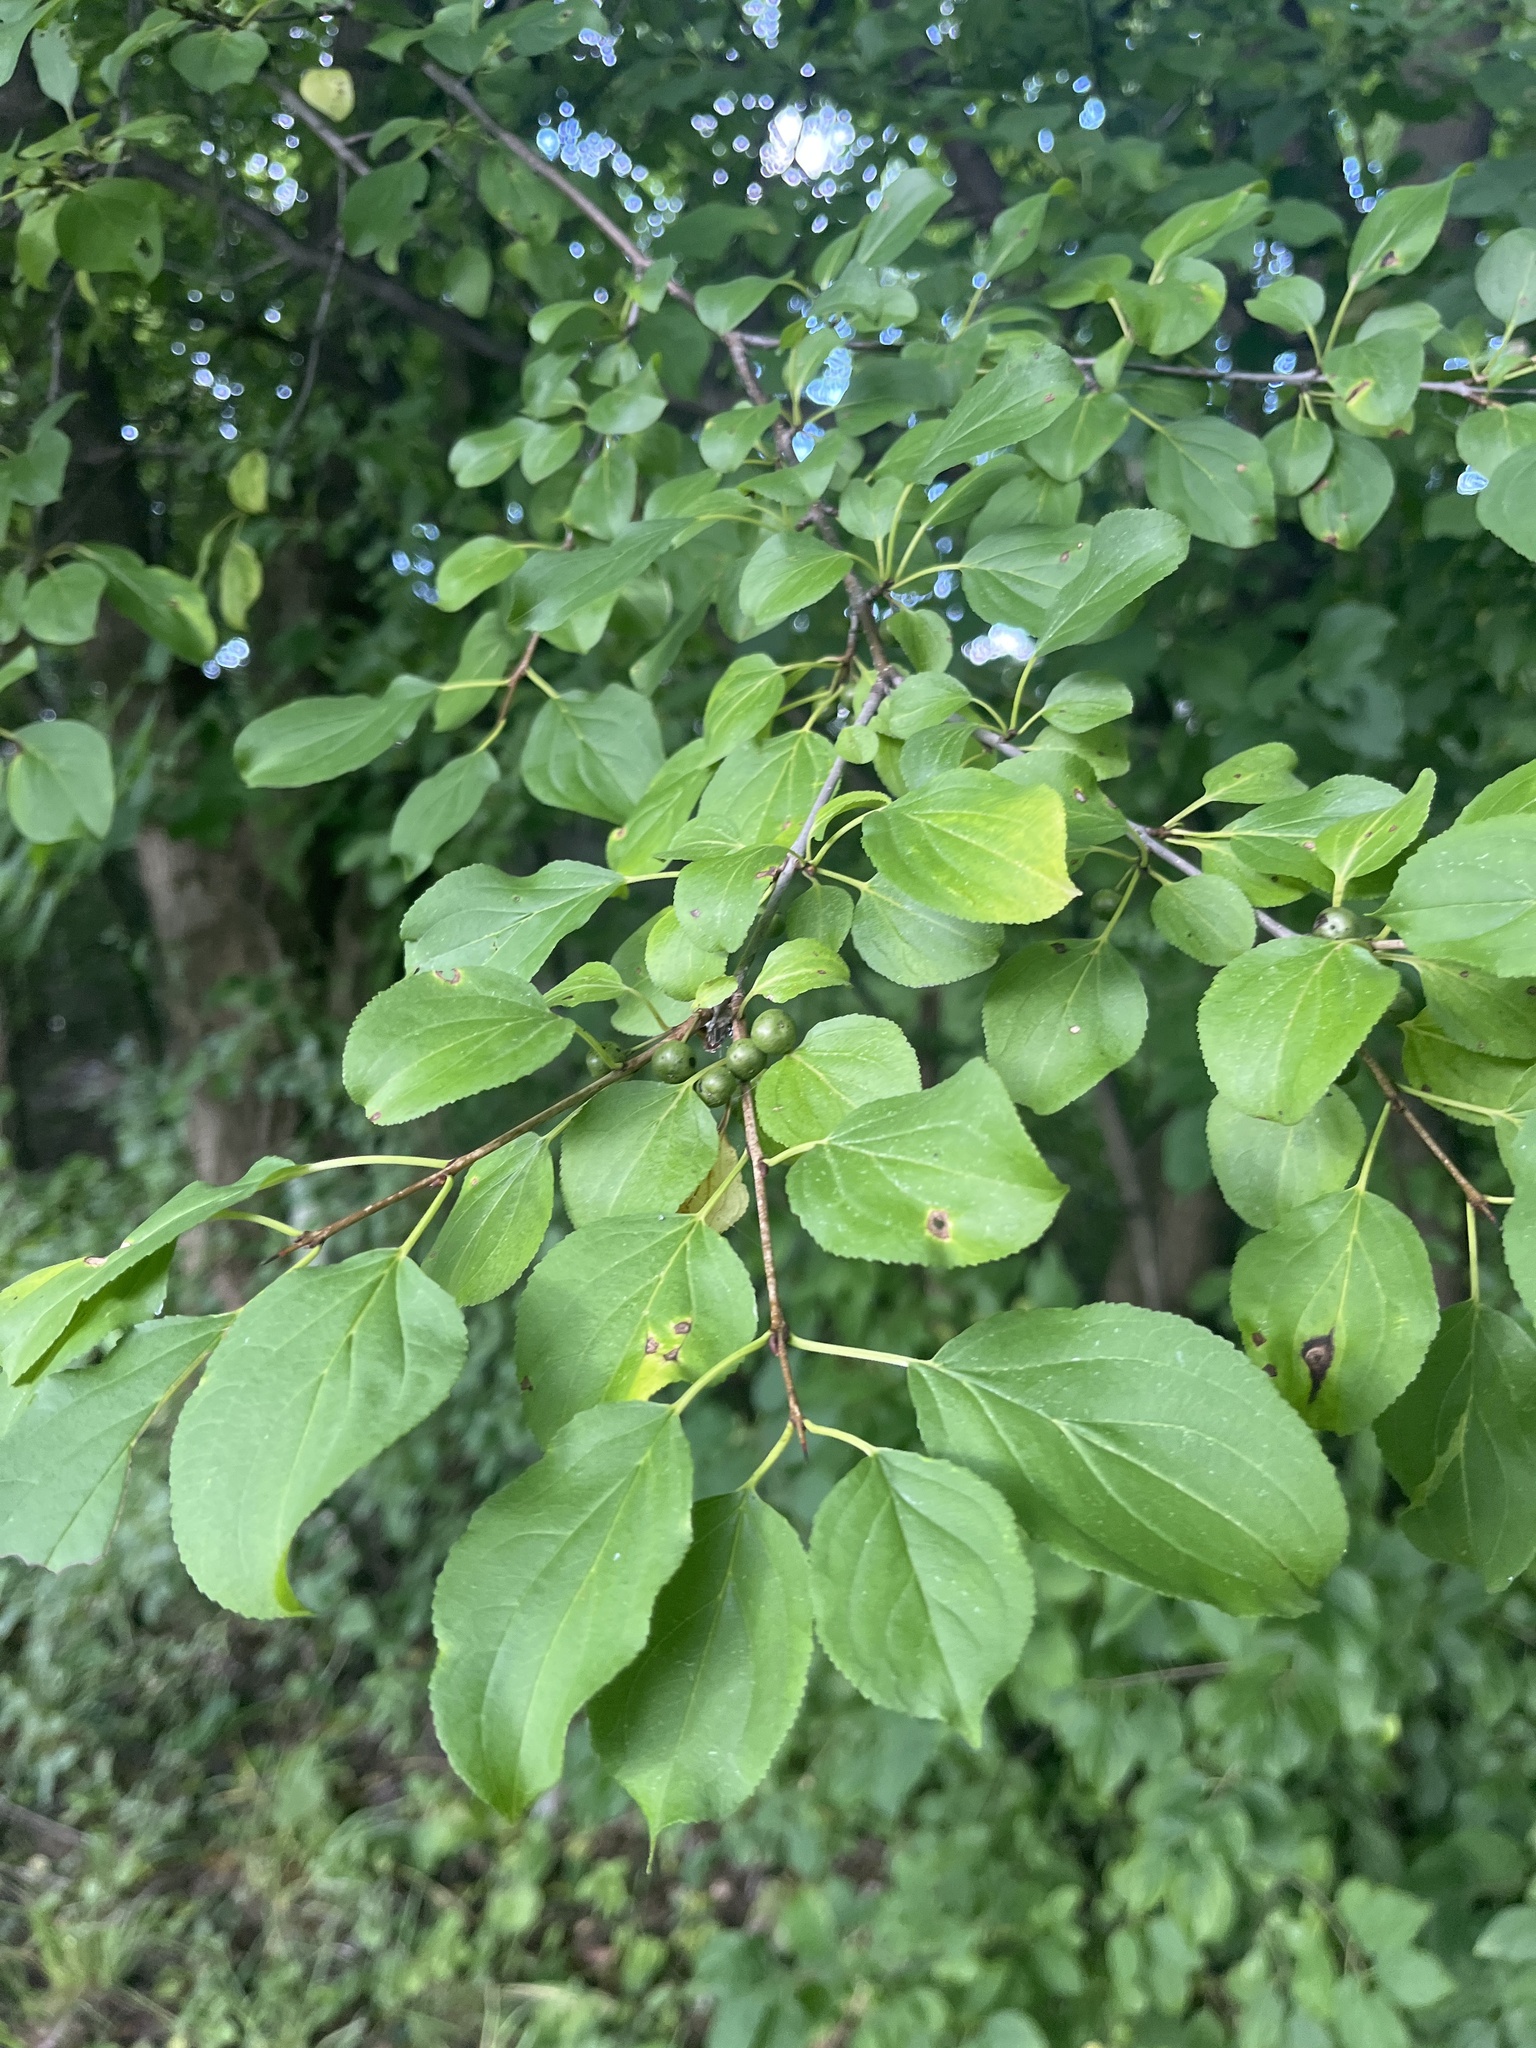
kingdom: Plantae
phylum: Tracheophyta
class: Magnoliopsida
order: Rosales
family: Rhamnaceae
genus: Rhamnus
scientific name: Rhamnus cathartica
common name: Common buckthorn
